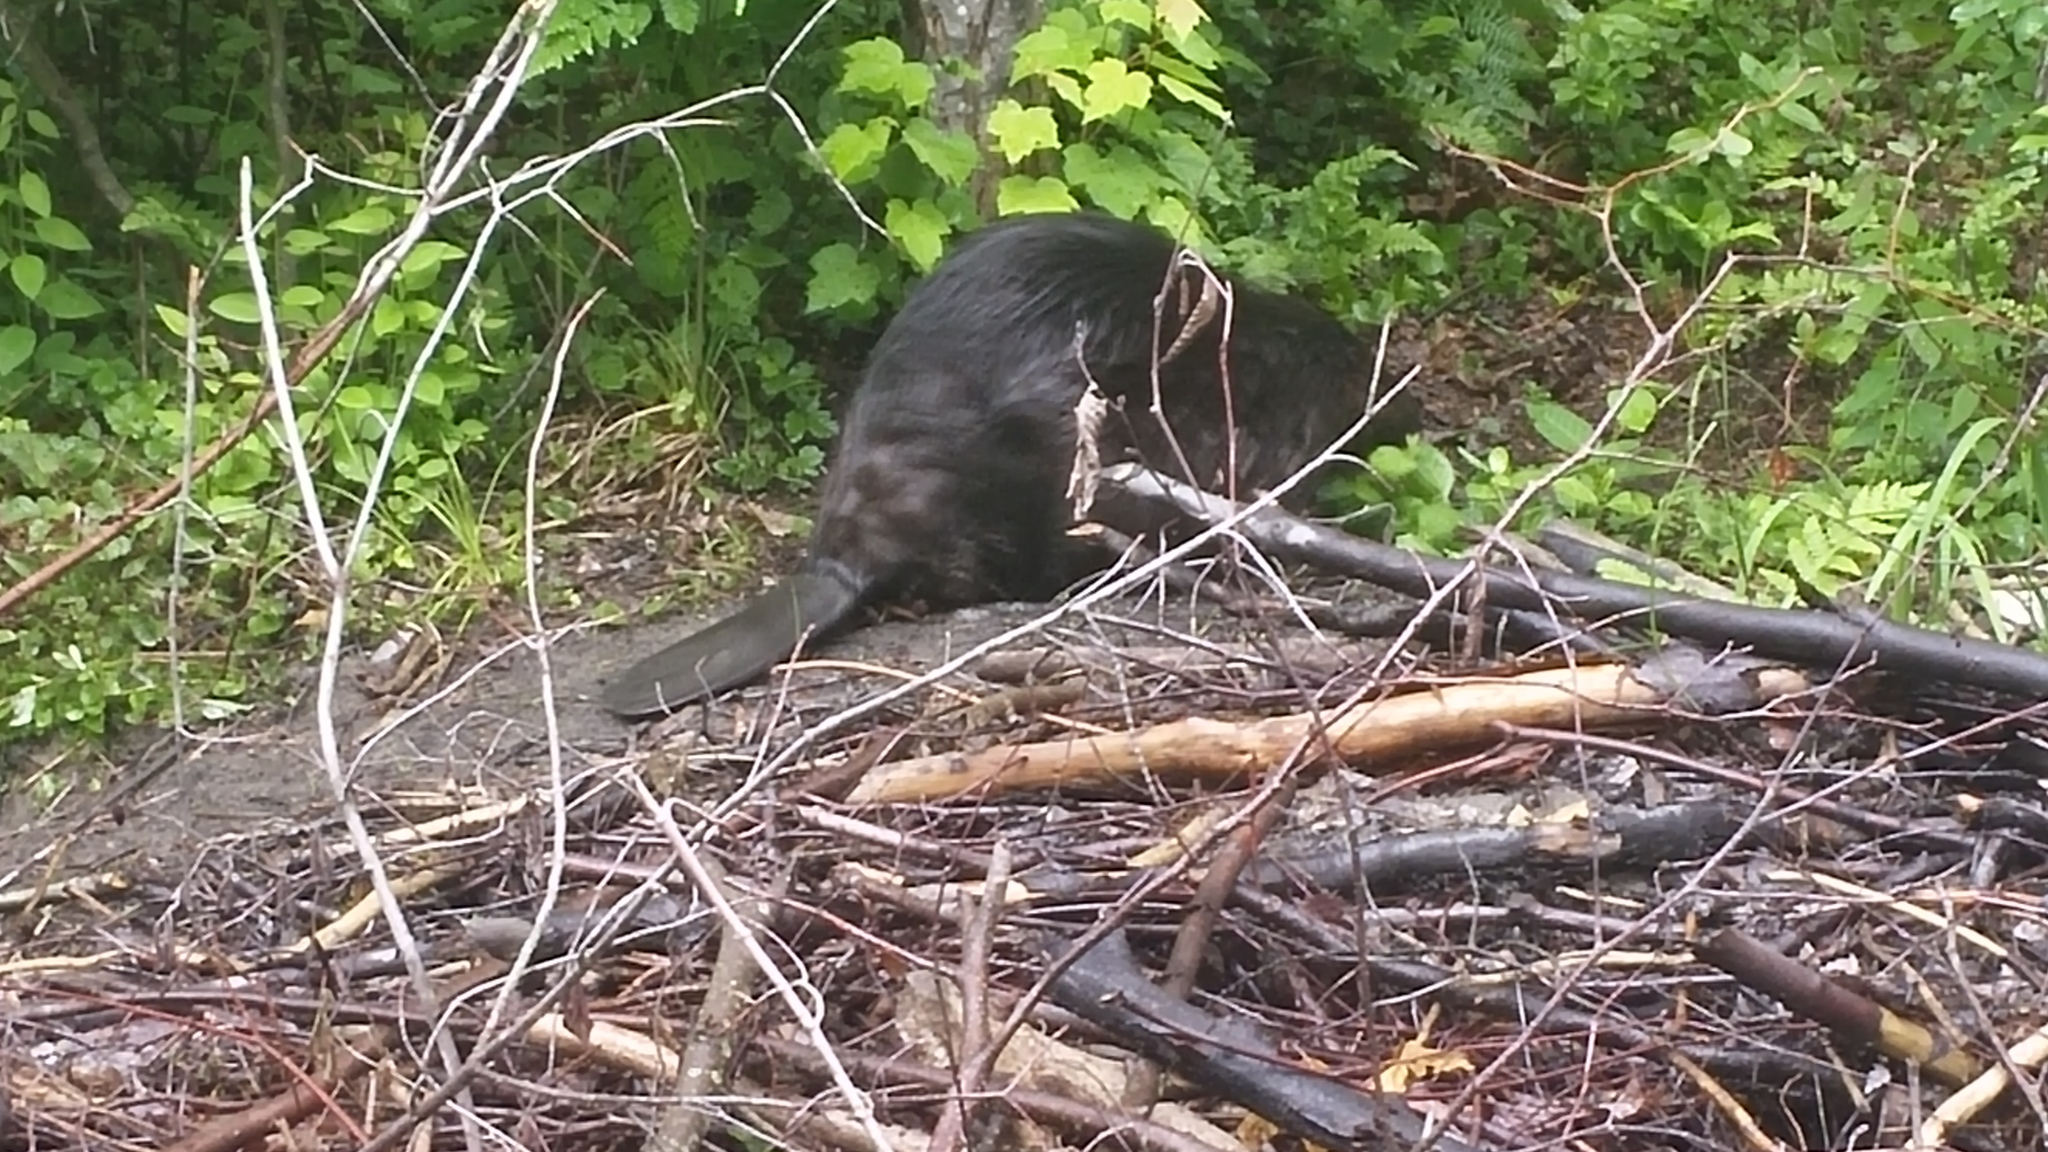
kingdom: Animalia
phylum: Chordata
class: Mammalia
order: Rodentia
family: Castoridae
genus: Castor
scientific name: Castor canadensis
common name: American beaver
